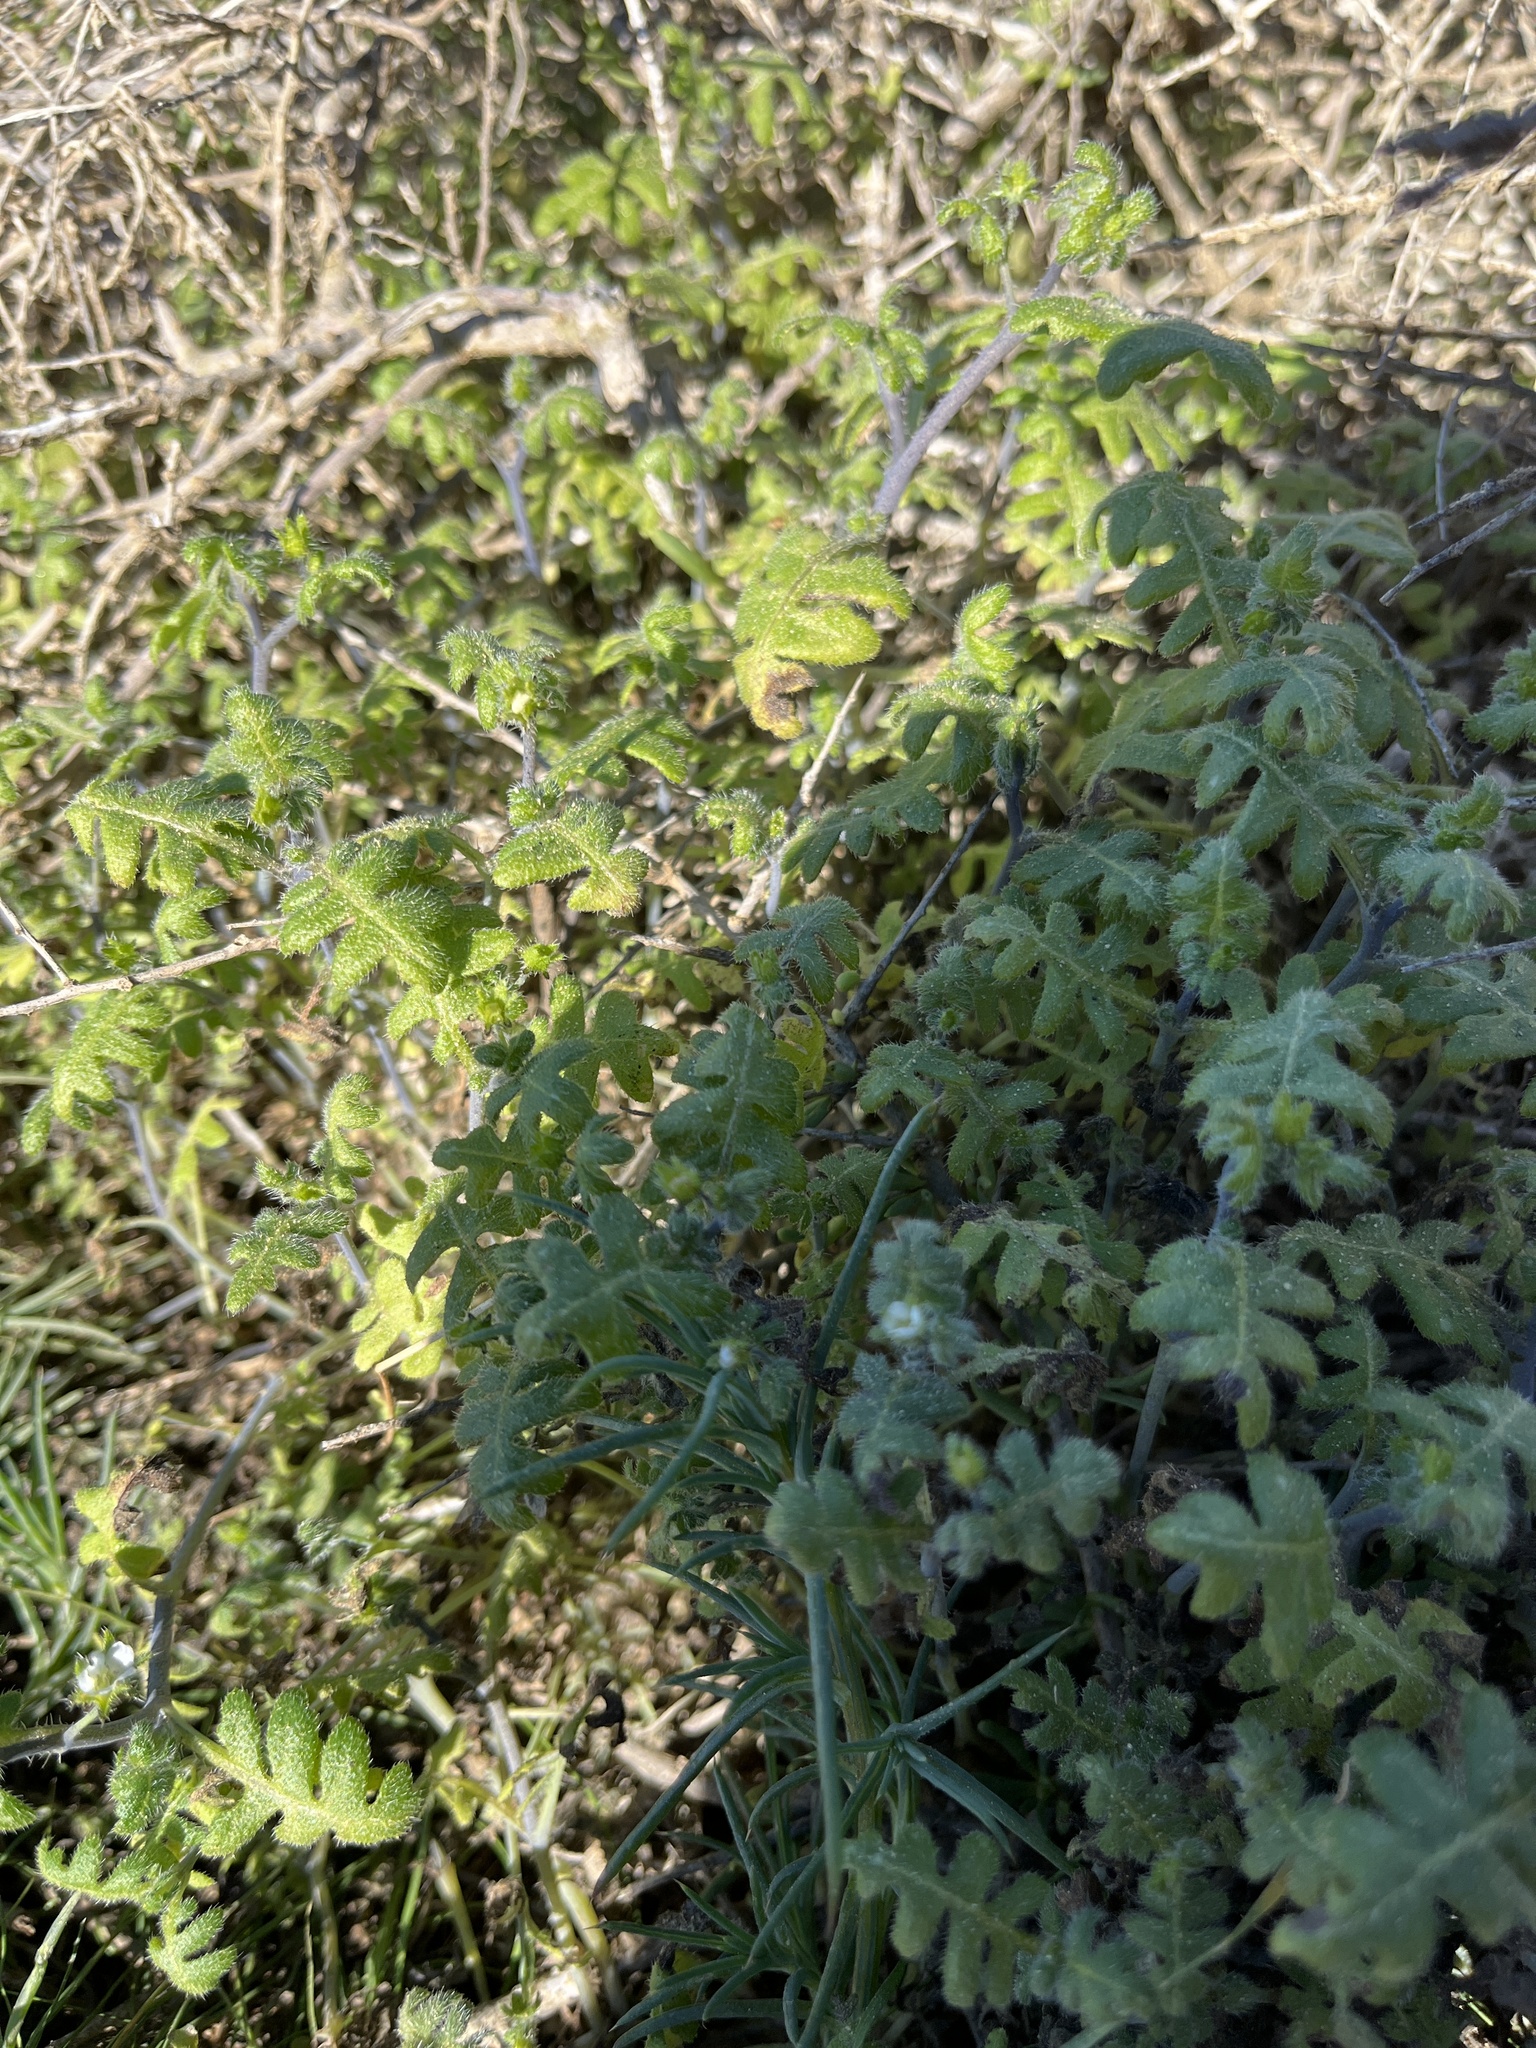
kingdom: Plantae
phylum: Tracheophyta
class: Magnoliopsida
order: Boraginales
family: Hydrophyllaceae
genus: Pholistoma
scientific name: Pholistoma racemosum
